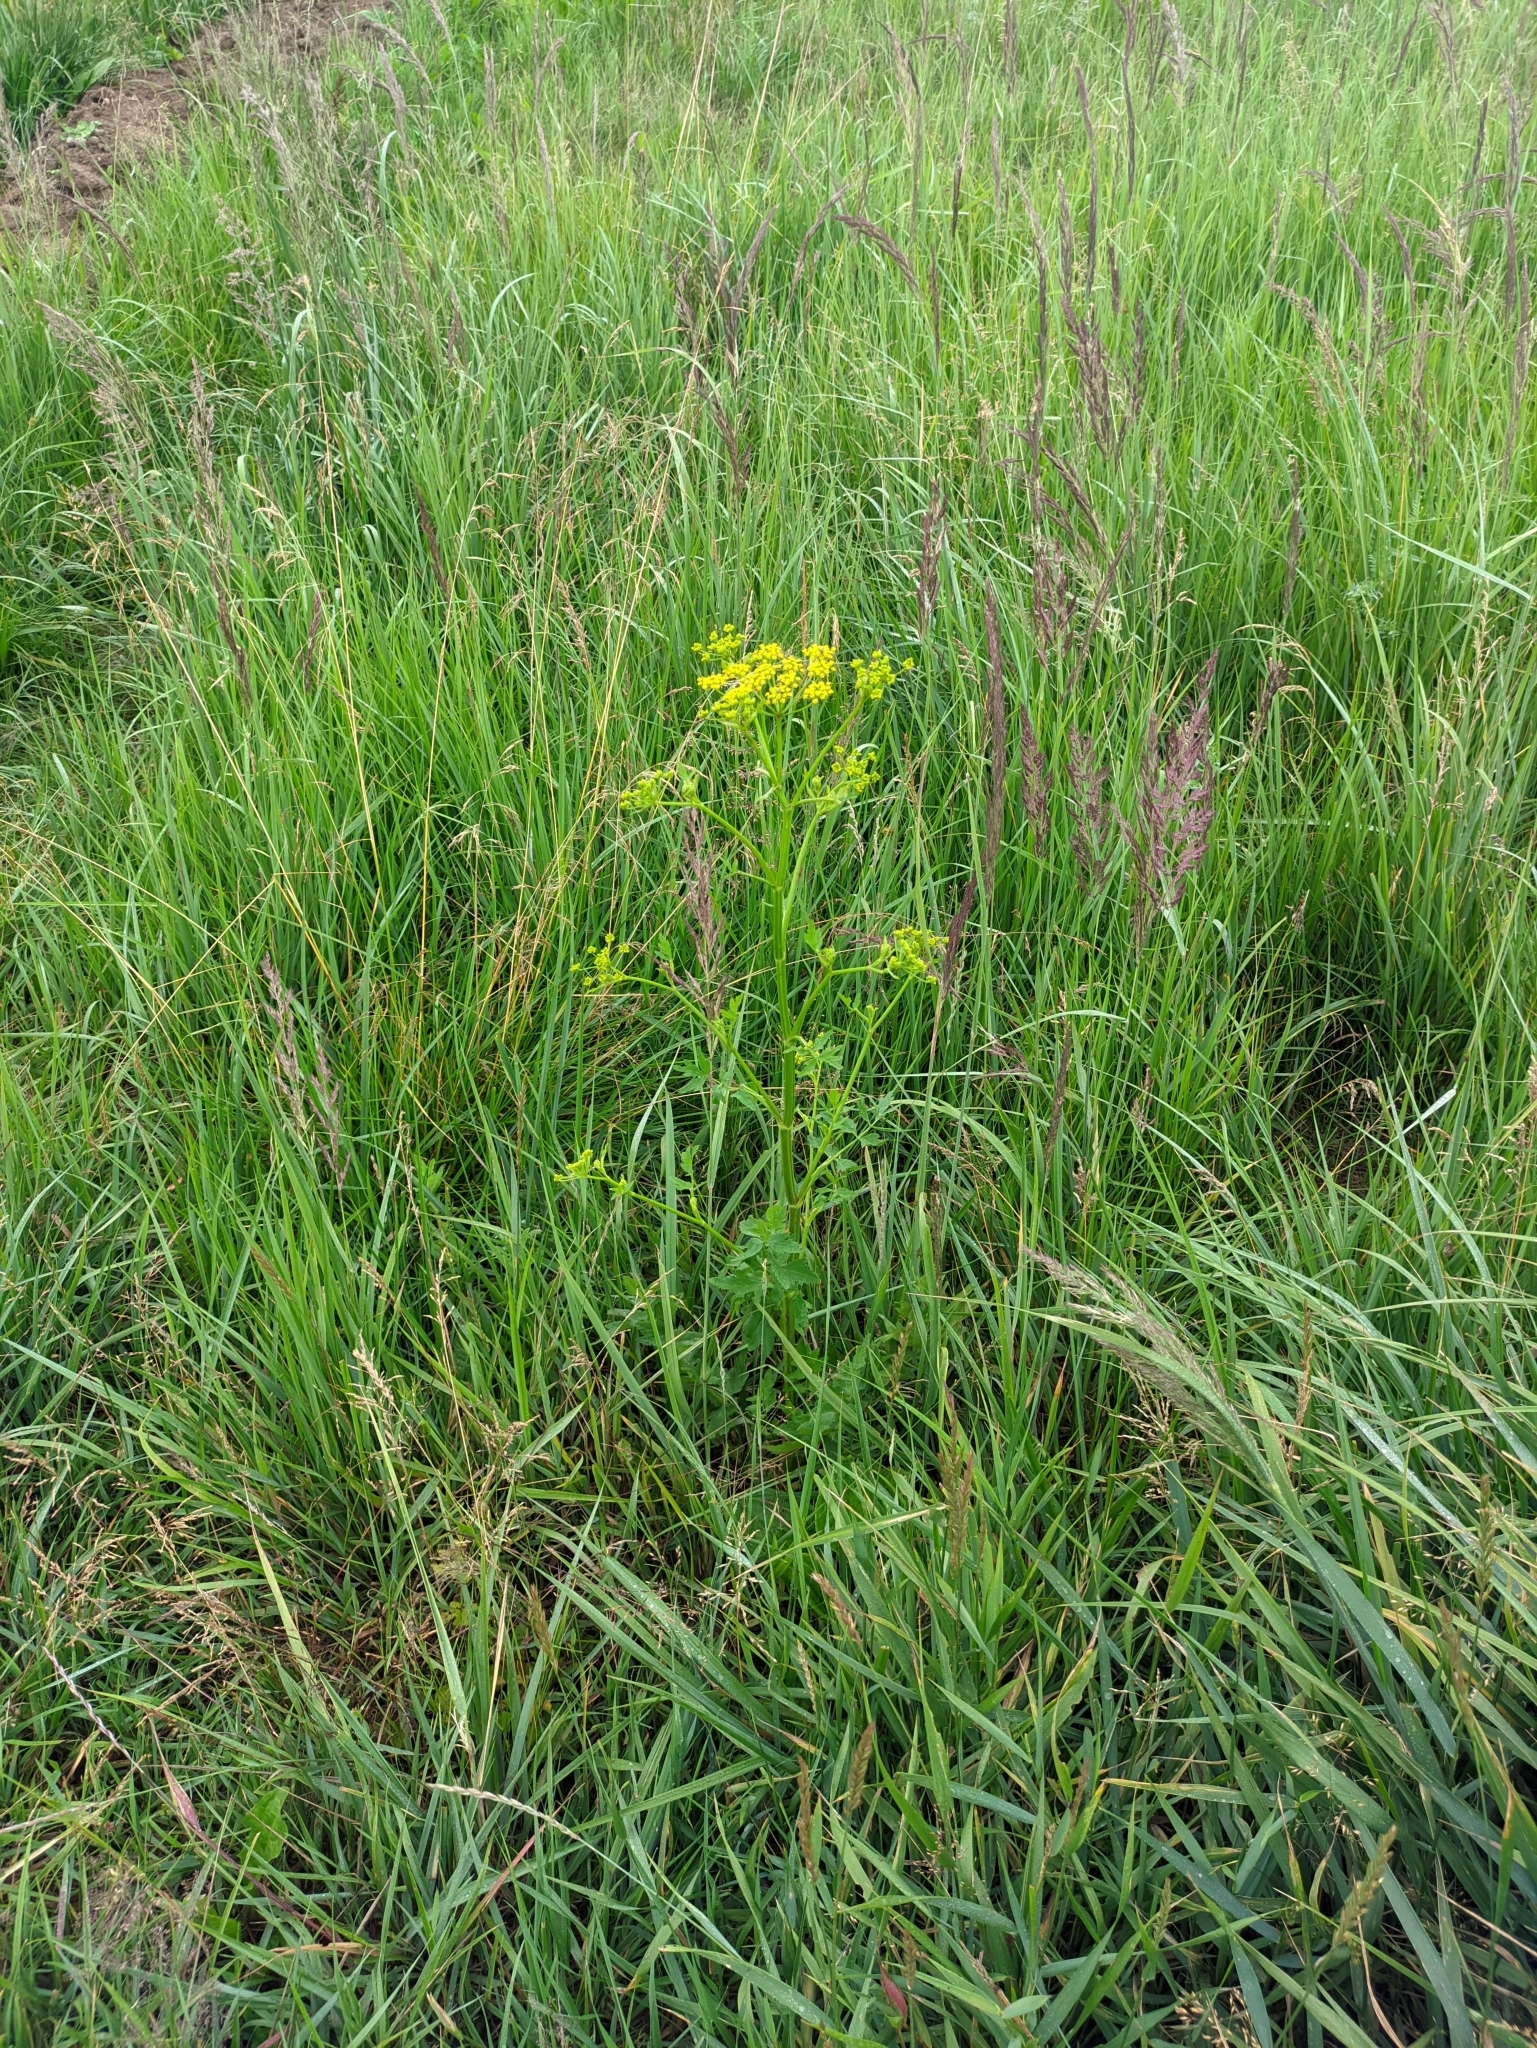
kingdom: Plantae
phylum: Tracheophyta
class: Magnoliopsida
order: Apiales
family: Apiaceae
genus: Pastinaca
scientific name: Pastinaca sativa
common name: Wild parsnip
